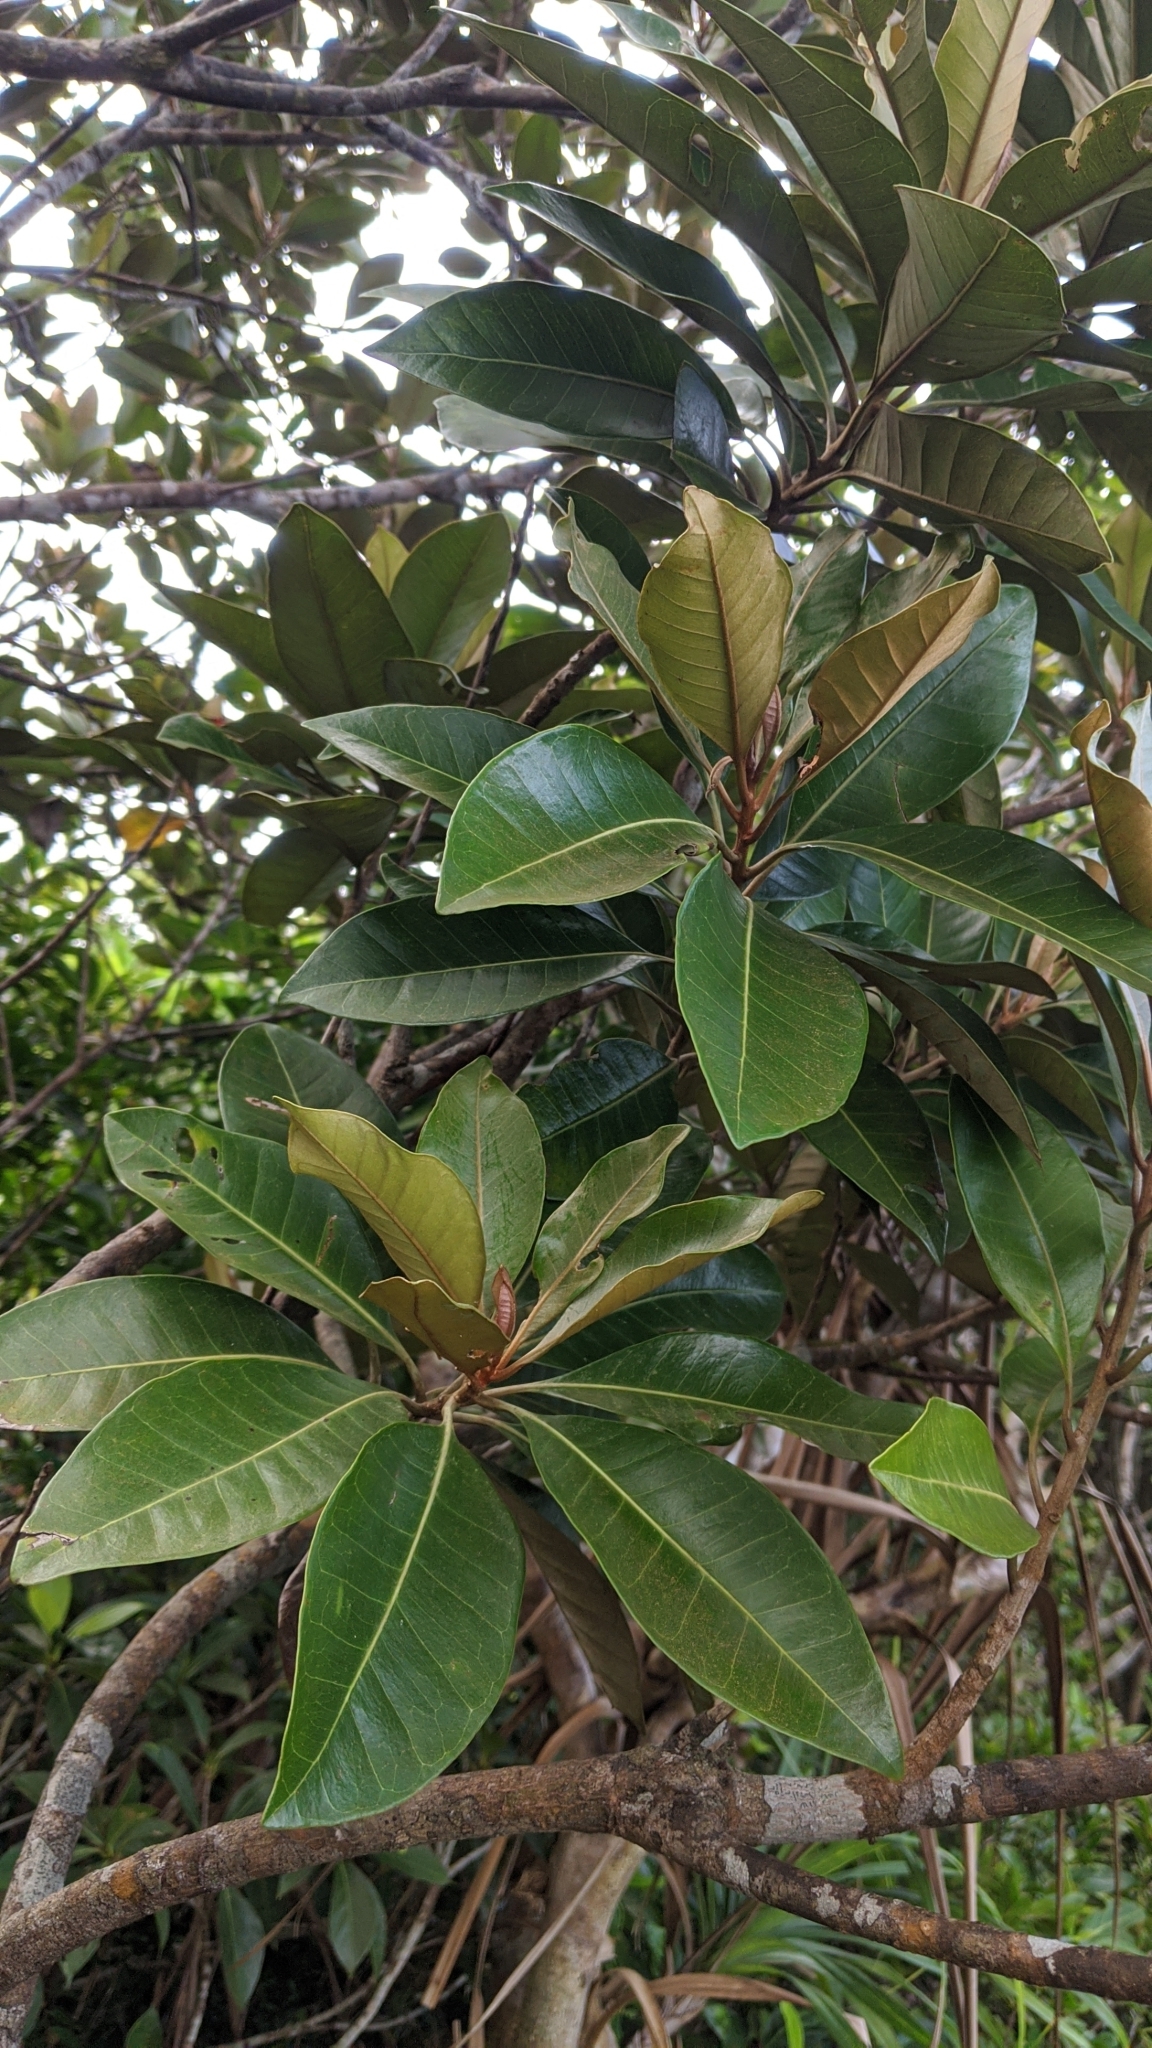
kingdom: Plantae
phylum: Tracheophyta
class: Magnoliopsida
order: Ericales
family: Sapotaceae
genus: Planchonella
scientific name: Planchonella obovata
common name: Black-ash
